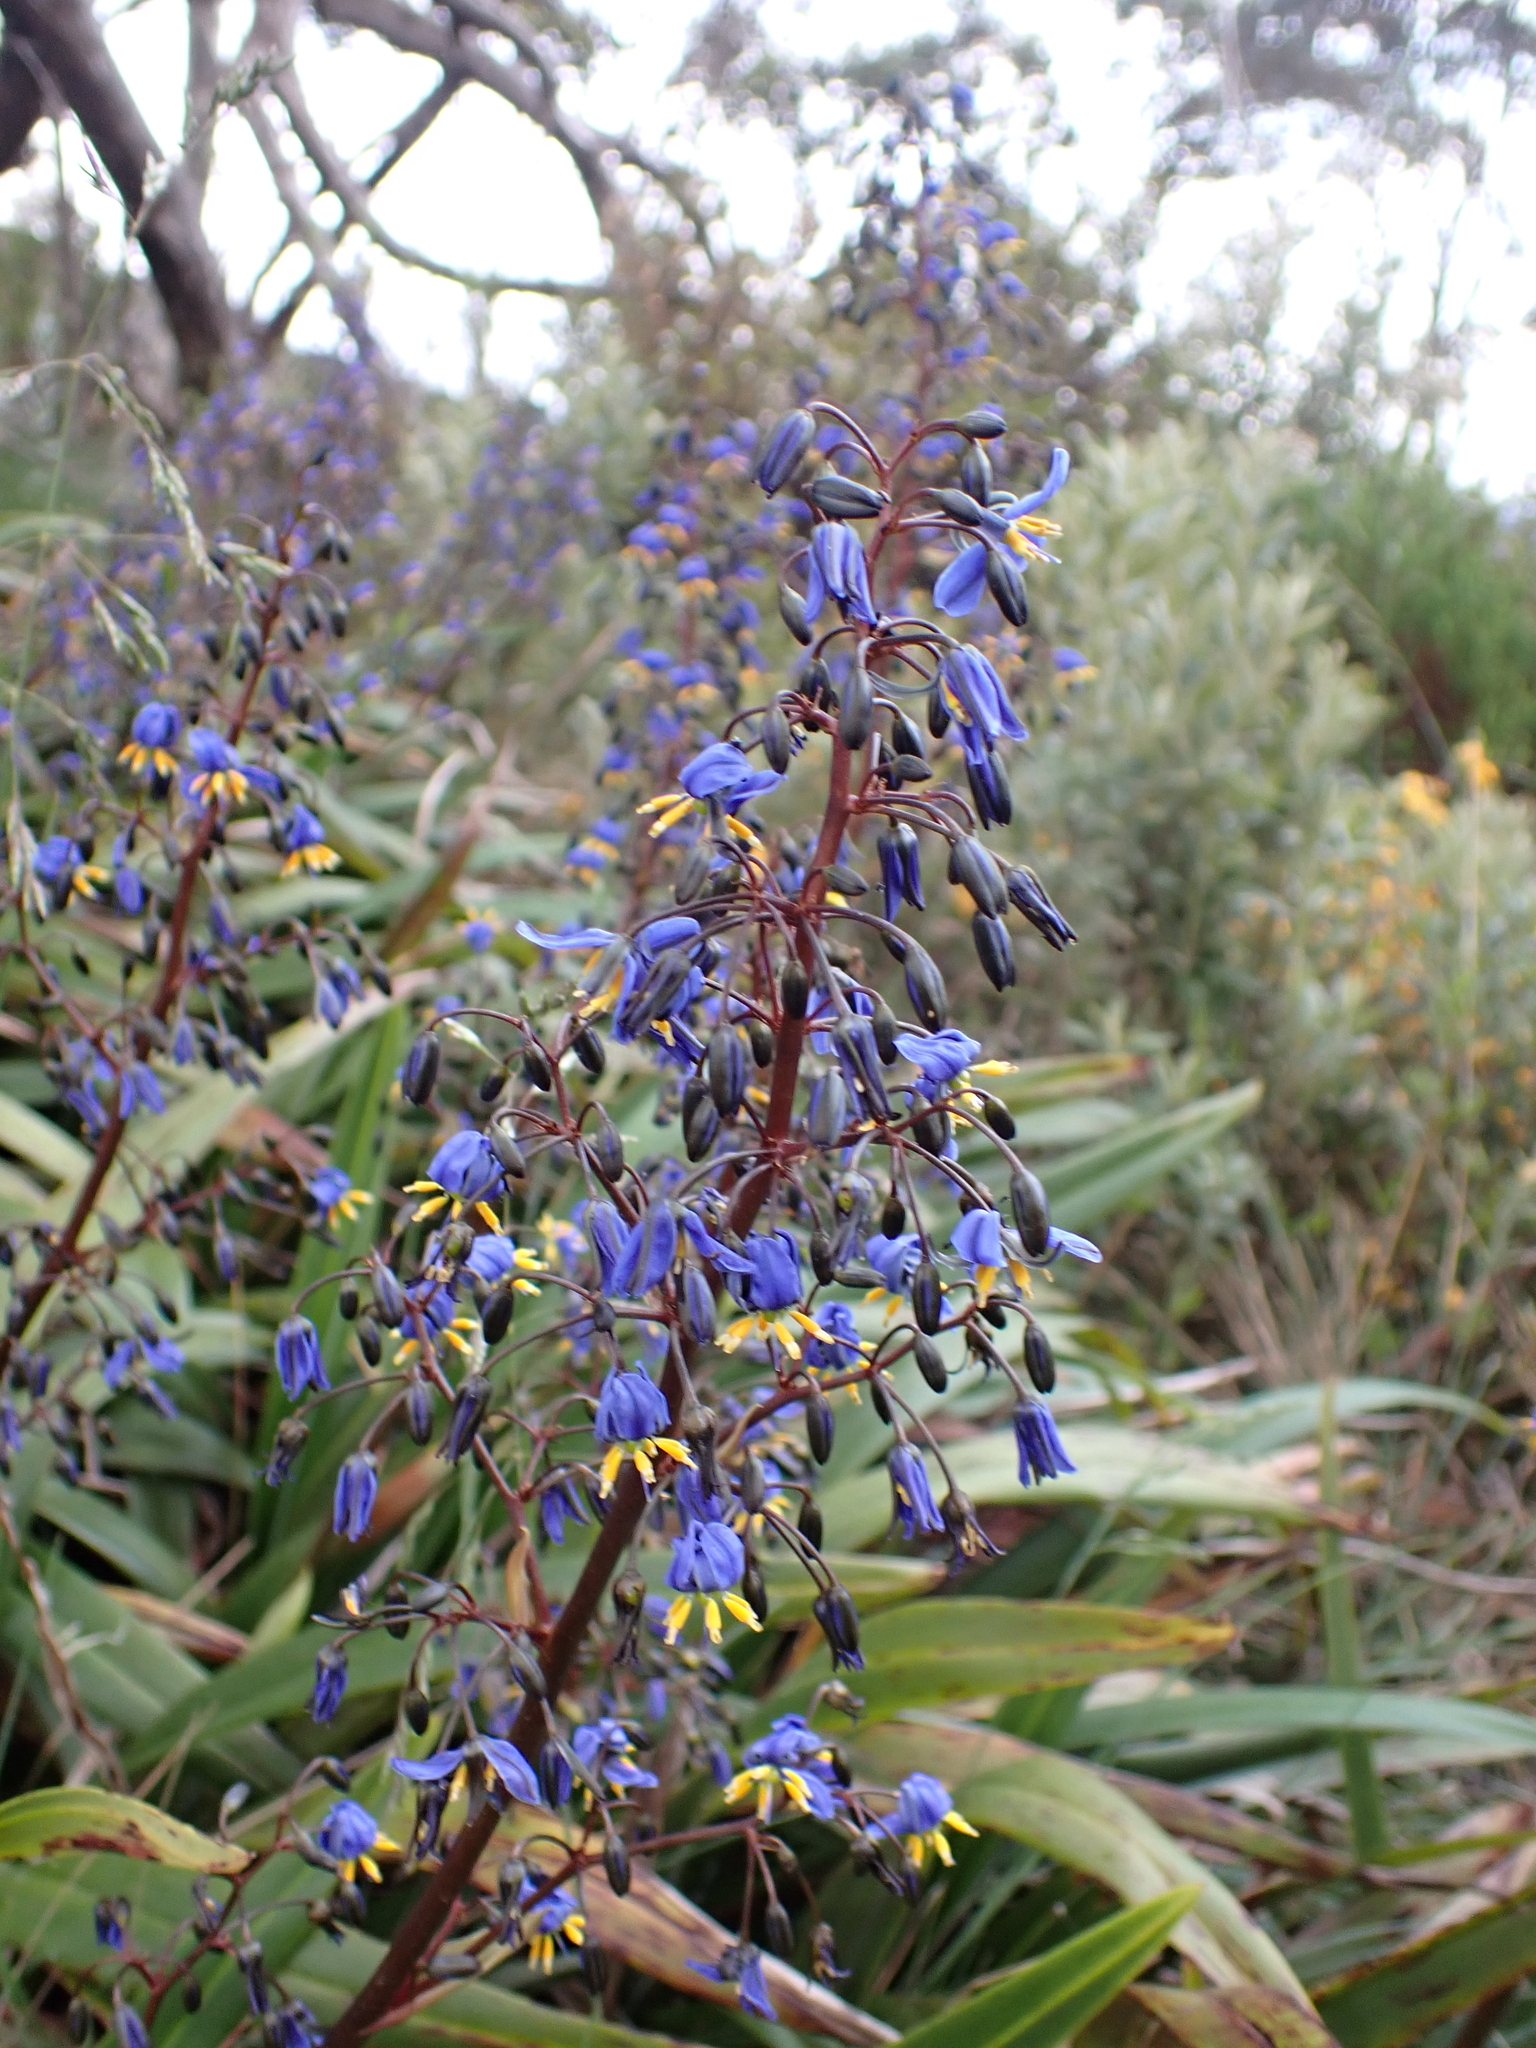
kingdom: Plantae
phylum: Tracheophyta
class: Liliopsida
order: Asparagales
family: Asphodelaceae
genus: Dianella
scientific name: Dianella tasmanica
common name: Tasman flax-lily
